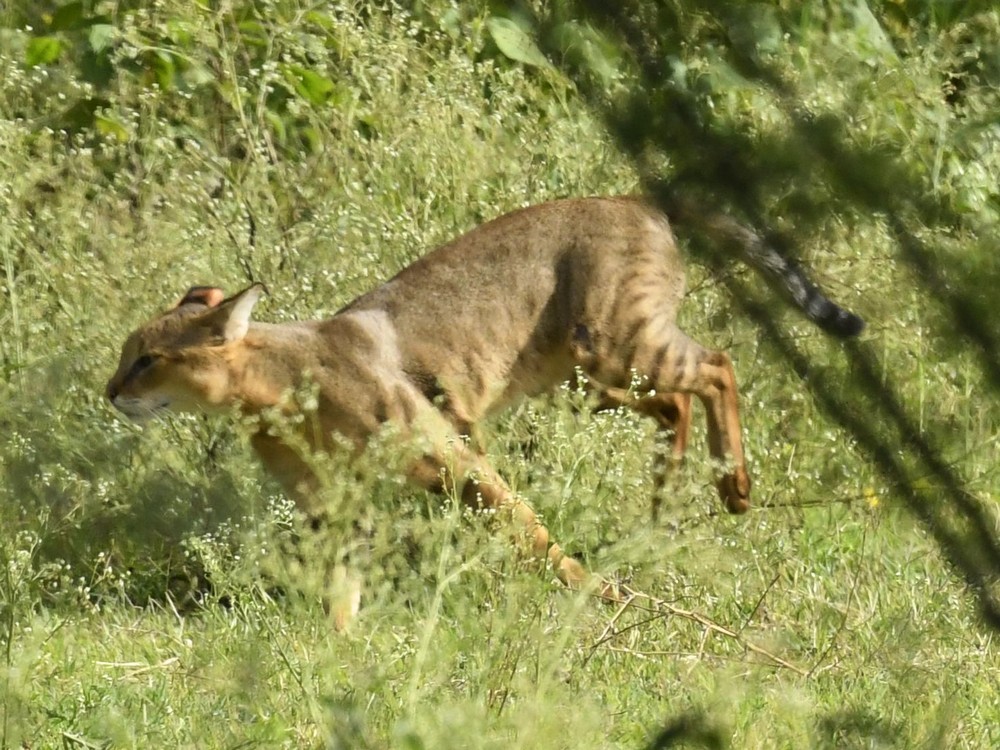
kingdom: Animalia
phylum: Chordata
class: Mammalia
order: Carnivora
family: Felidae
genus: Felis
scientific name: Felis chaus
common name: Jungle cat
